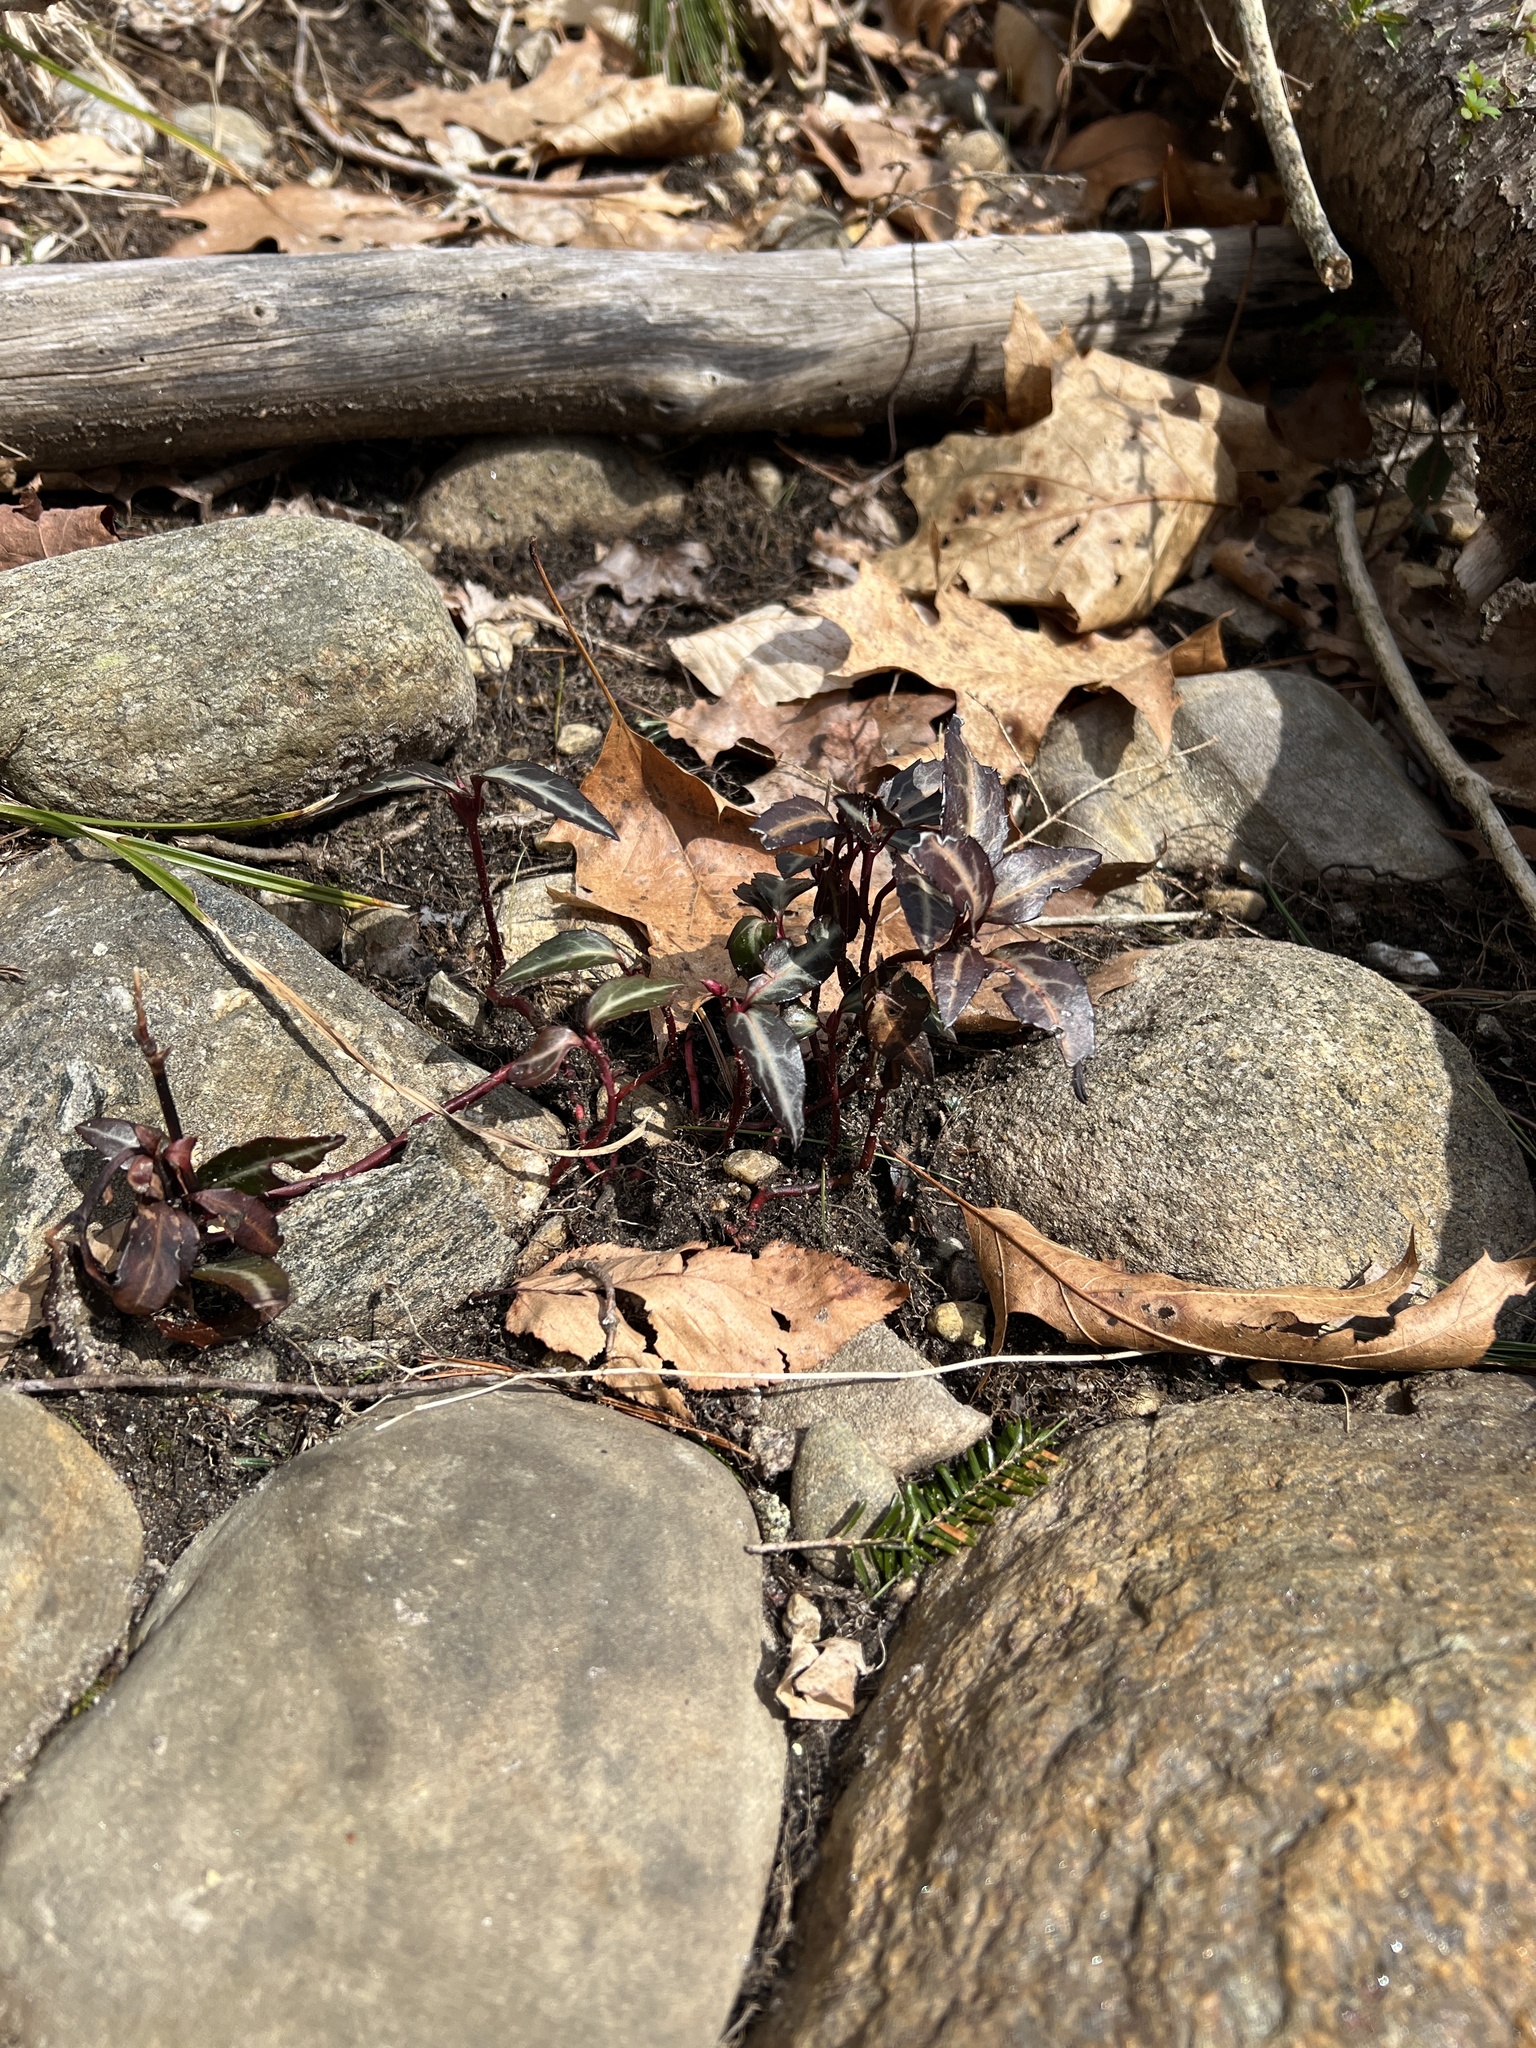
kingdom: Plantae
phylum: Tracheophyta
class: Magnoliopsida
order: Ericales
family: Ericaceae
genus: Chimaphila
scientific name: Chimaphila maculata
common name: Spotted pipsissewa
